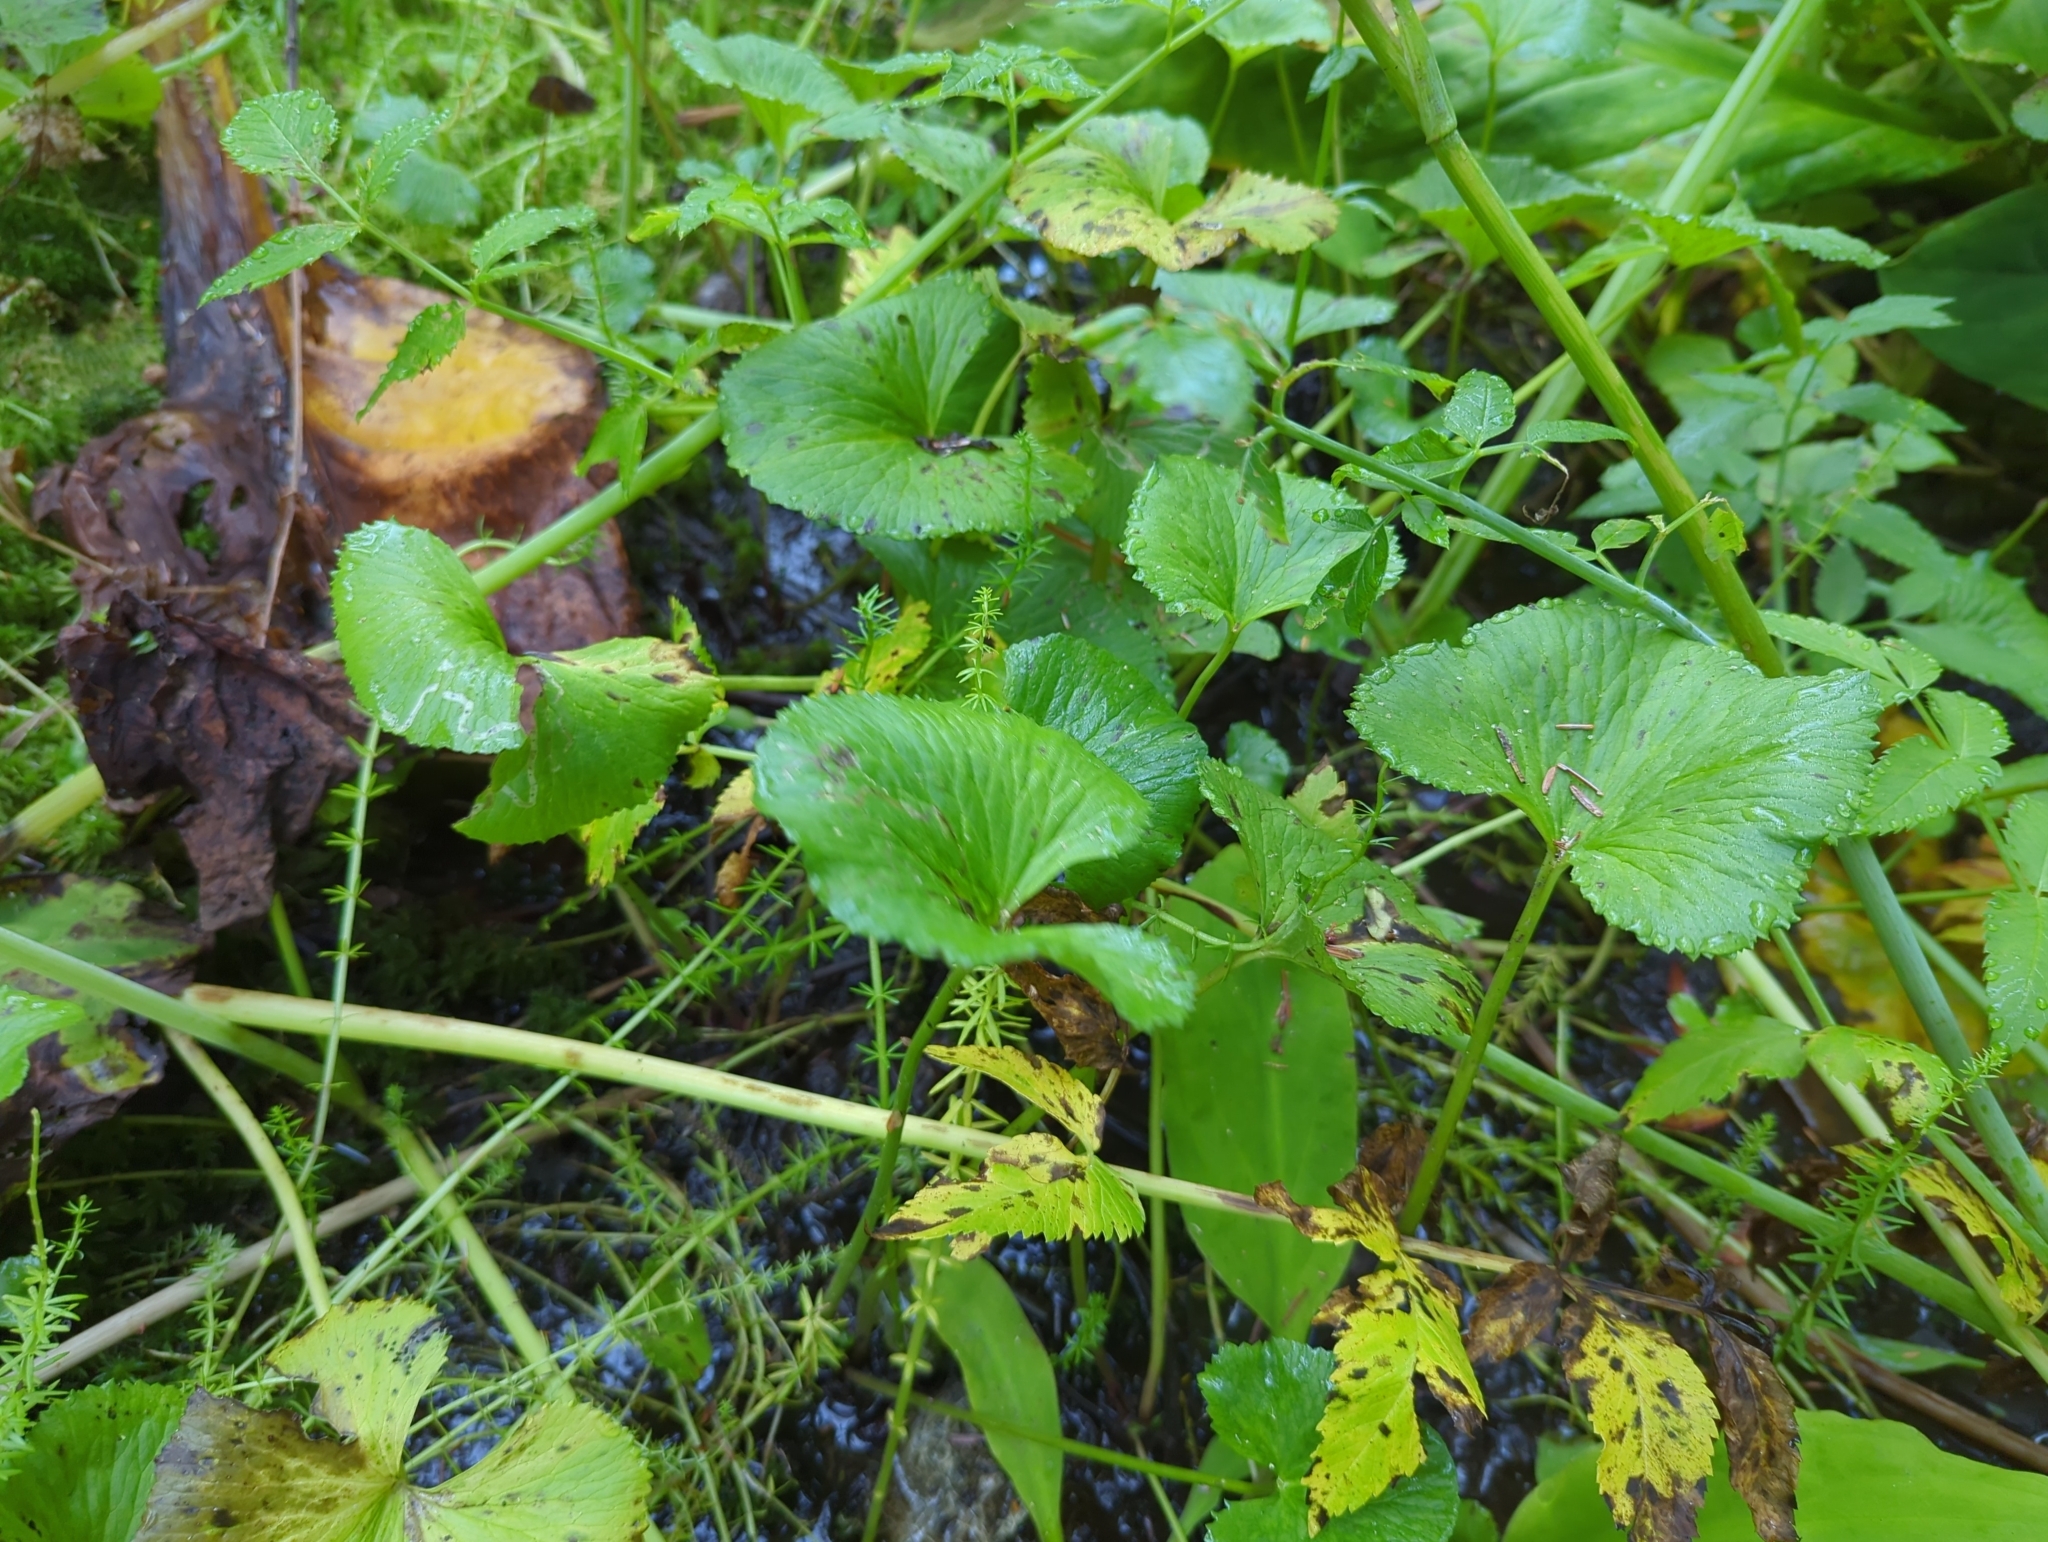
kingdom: Plantae
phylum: Tracheophyta
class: Magnoliopsida
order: Ranunculales
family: Ranunculaceae
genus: Caltha
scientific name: Caltha palustris
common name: Marsh marigold
